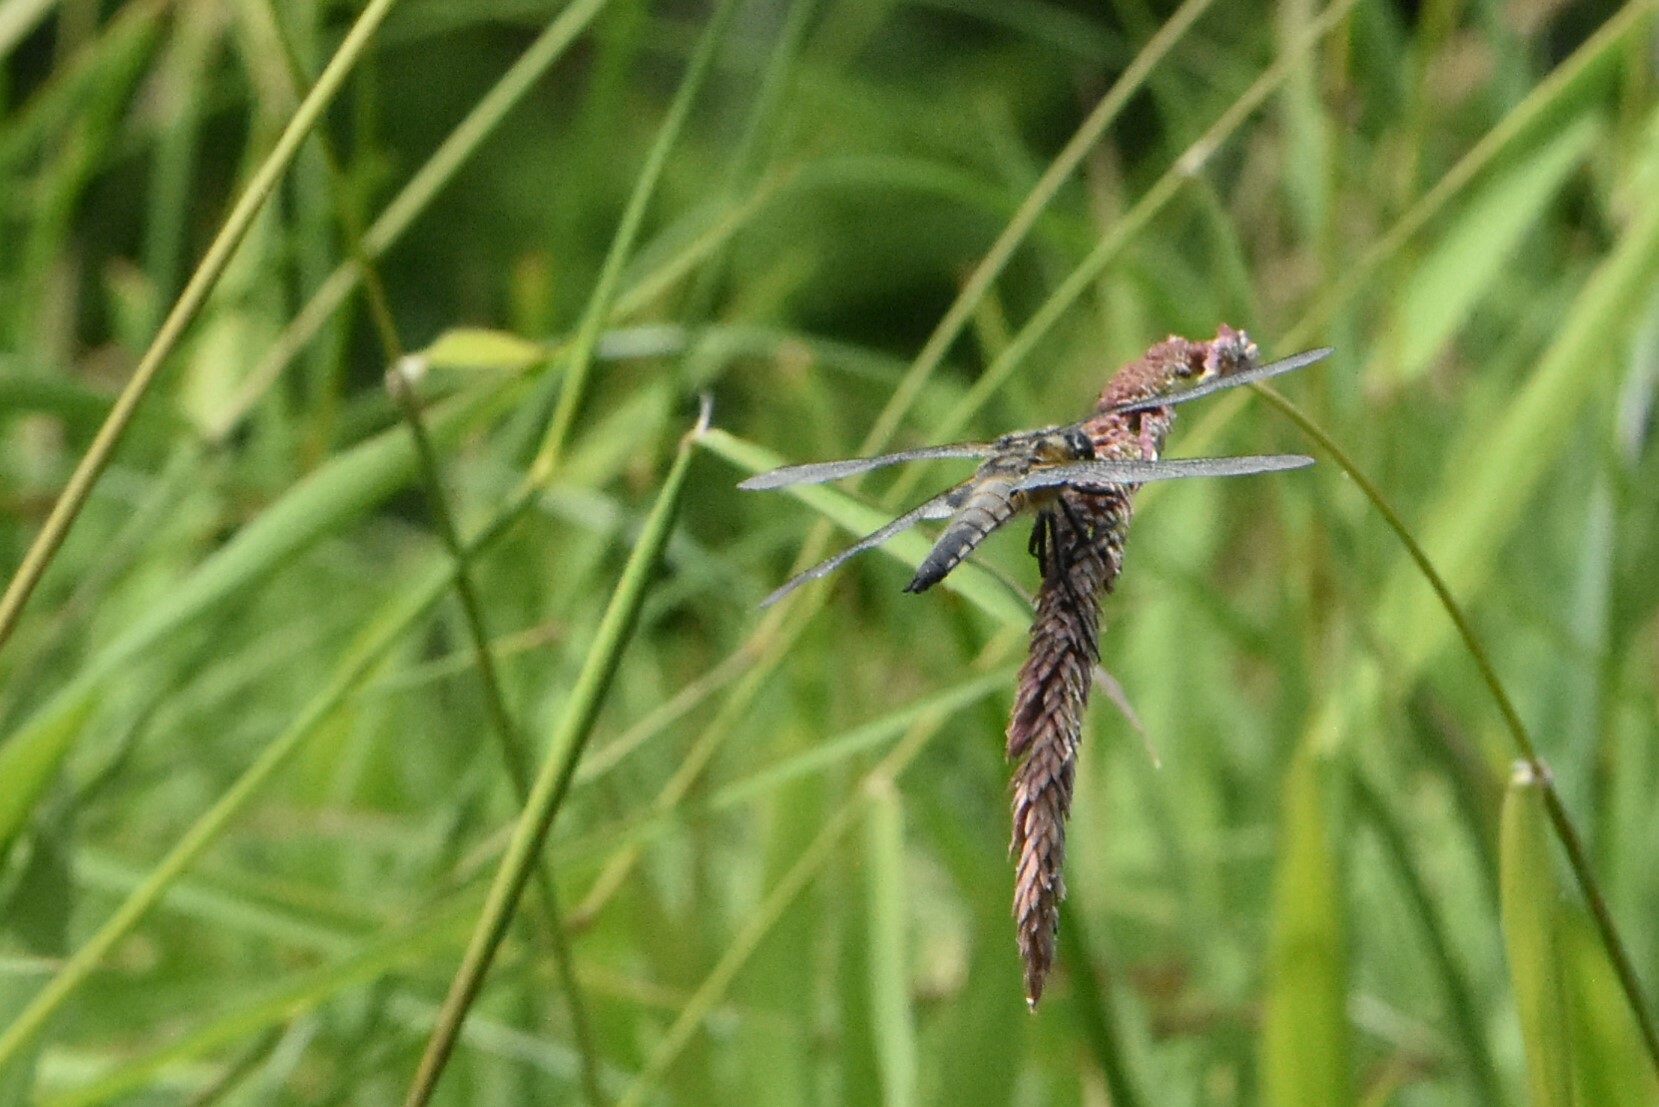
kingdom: Animalia
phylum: Arthropoda
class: Insecta
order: Odonata
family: Libellulidae
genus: Libellula
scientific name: Libellula quadrimaculata
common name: Four-spotted chaser
